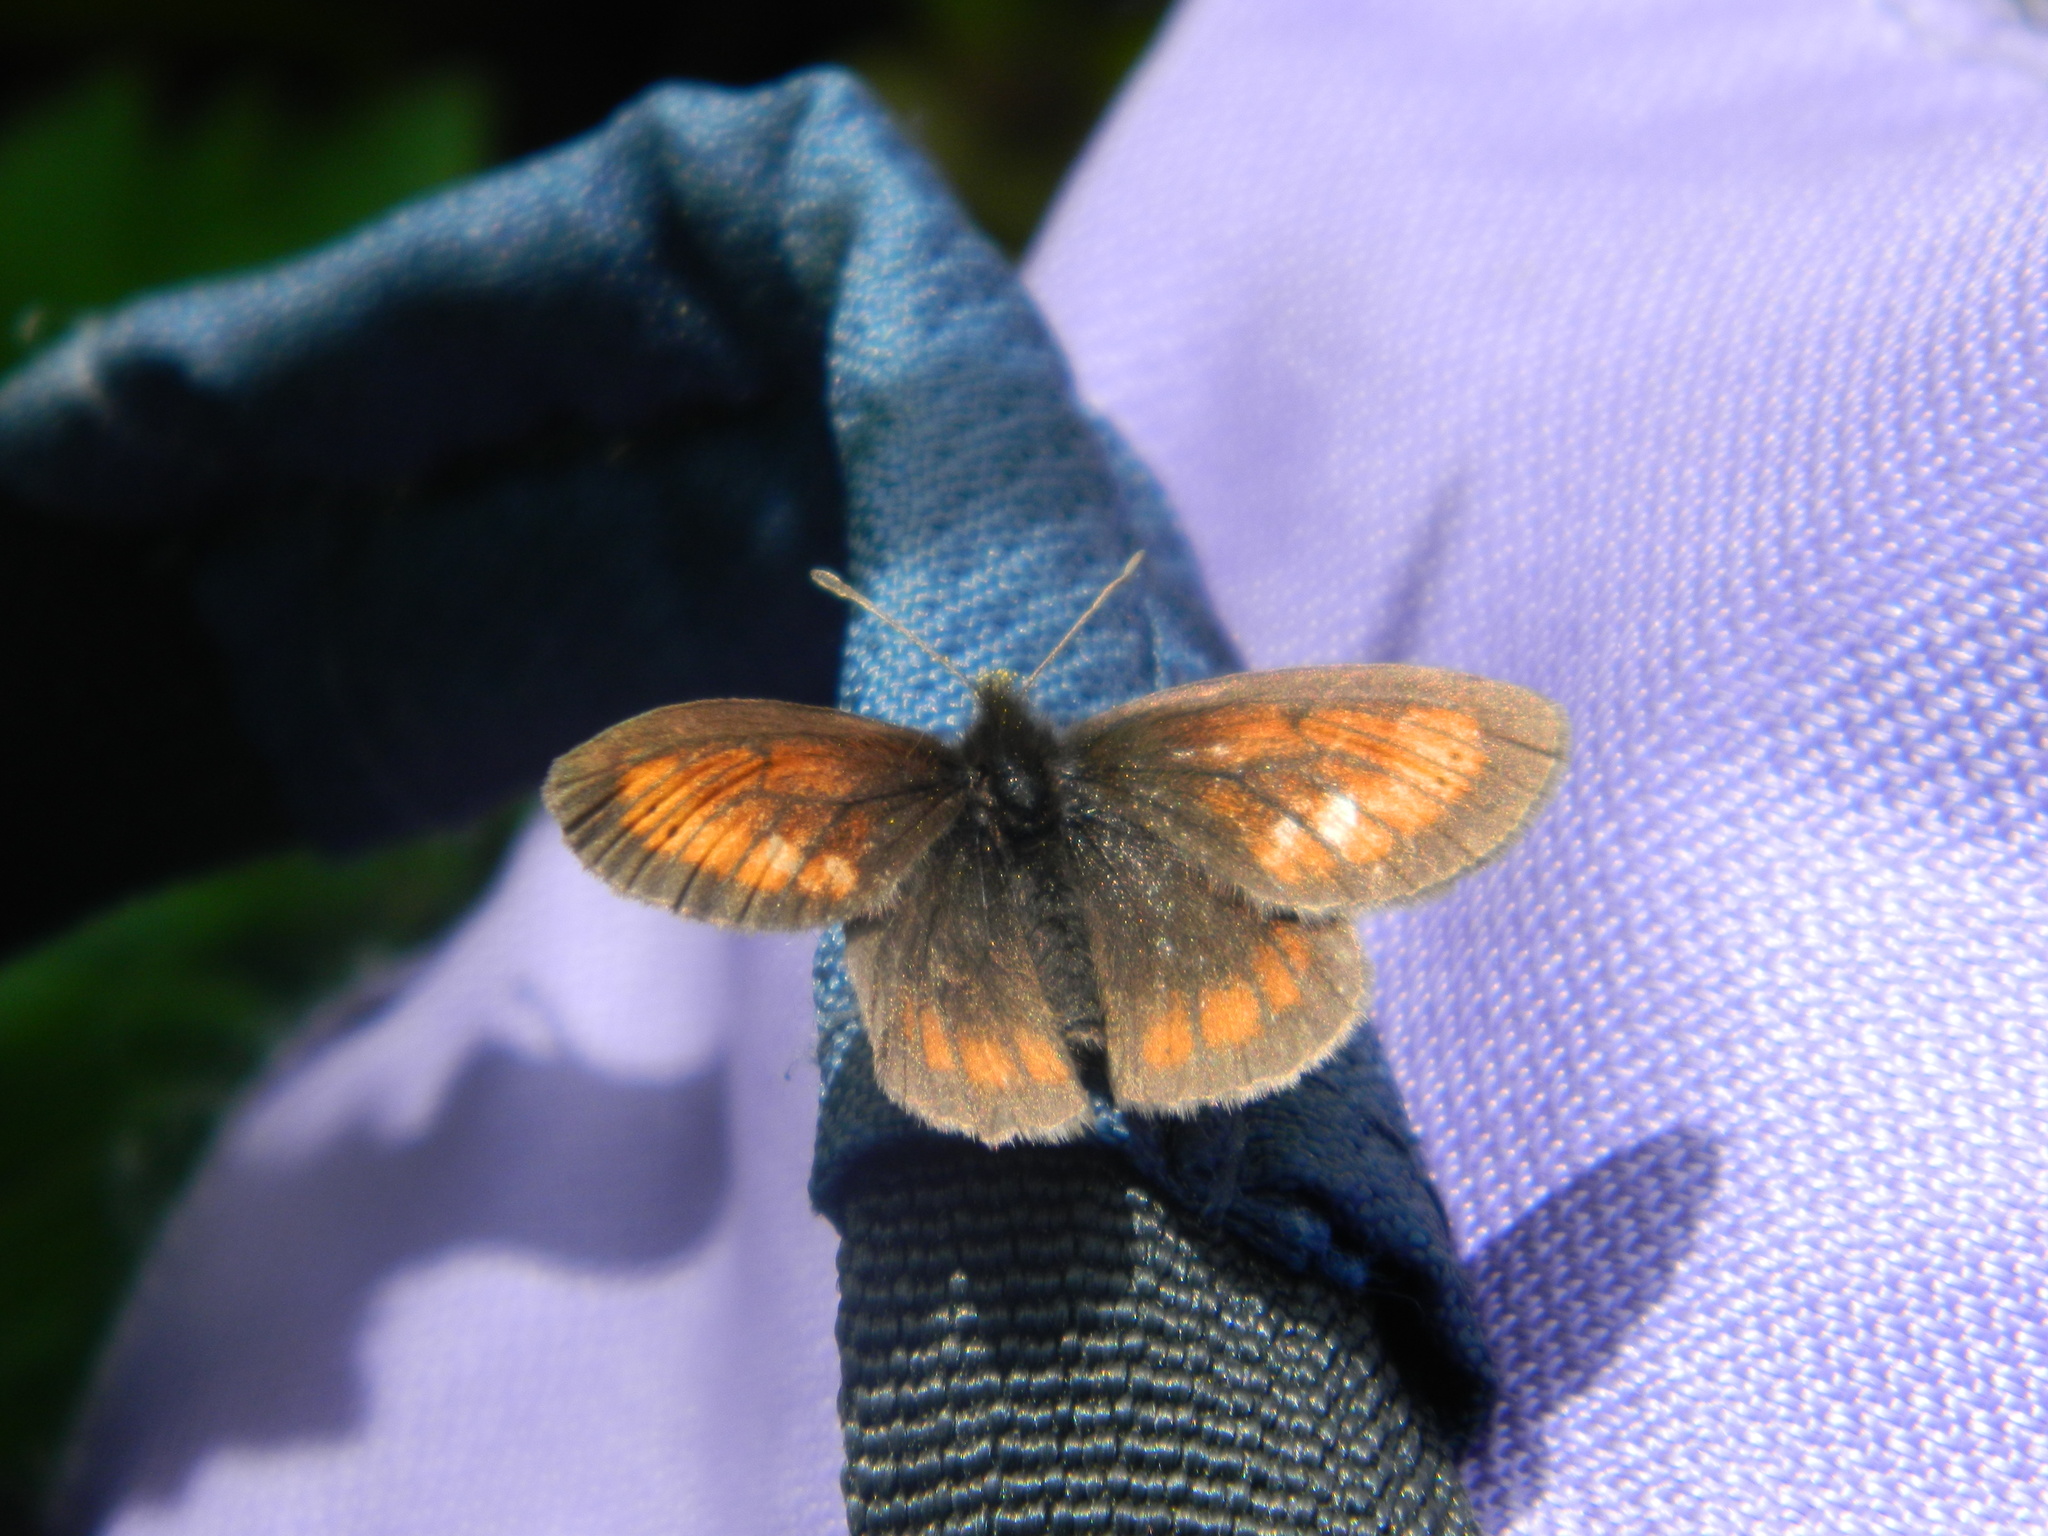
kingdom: Animalia
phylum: Arthropoda
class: Insecta
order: Lepidoptera
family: Nymphalidae
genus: Erebia
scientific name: Erebia kefersteinii
